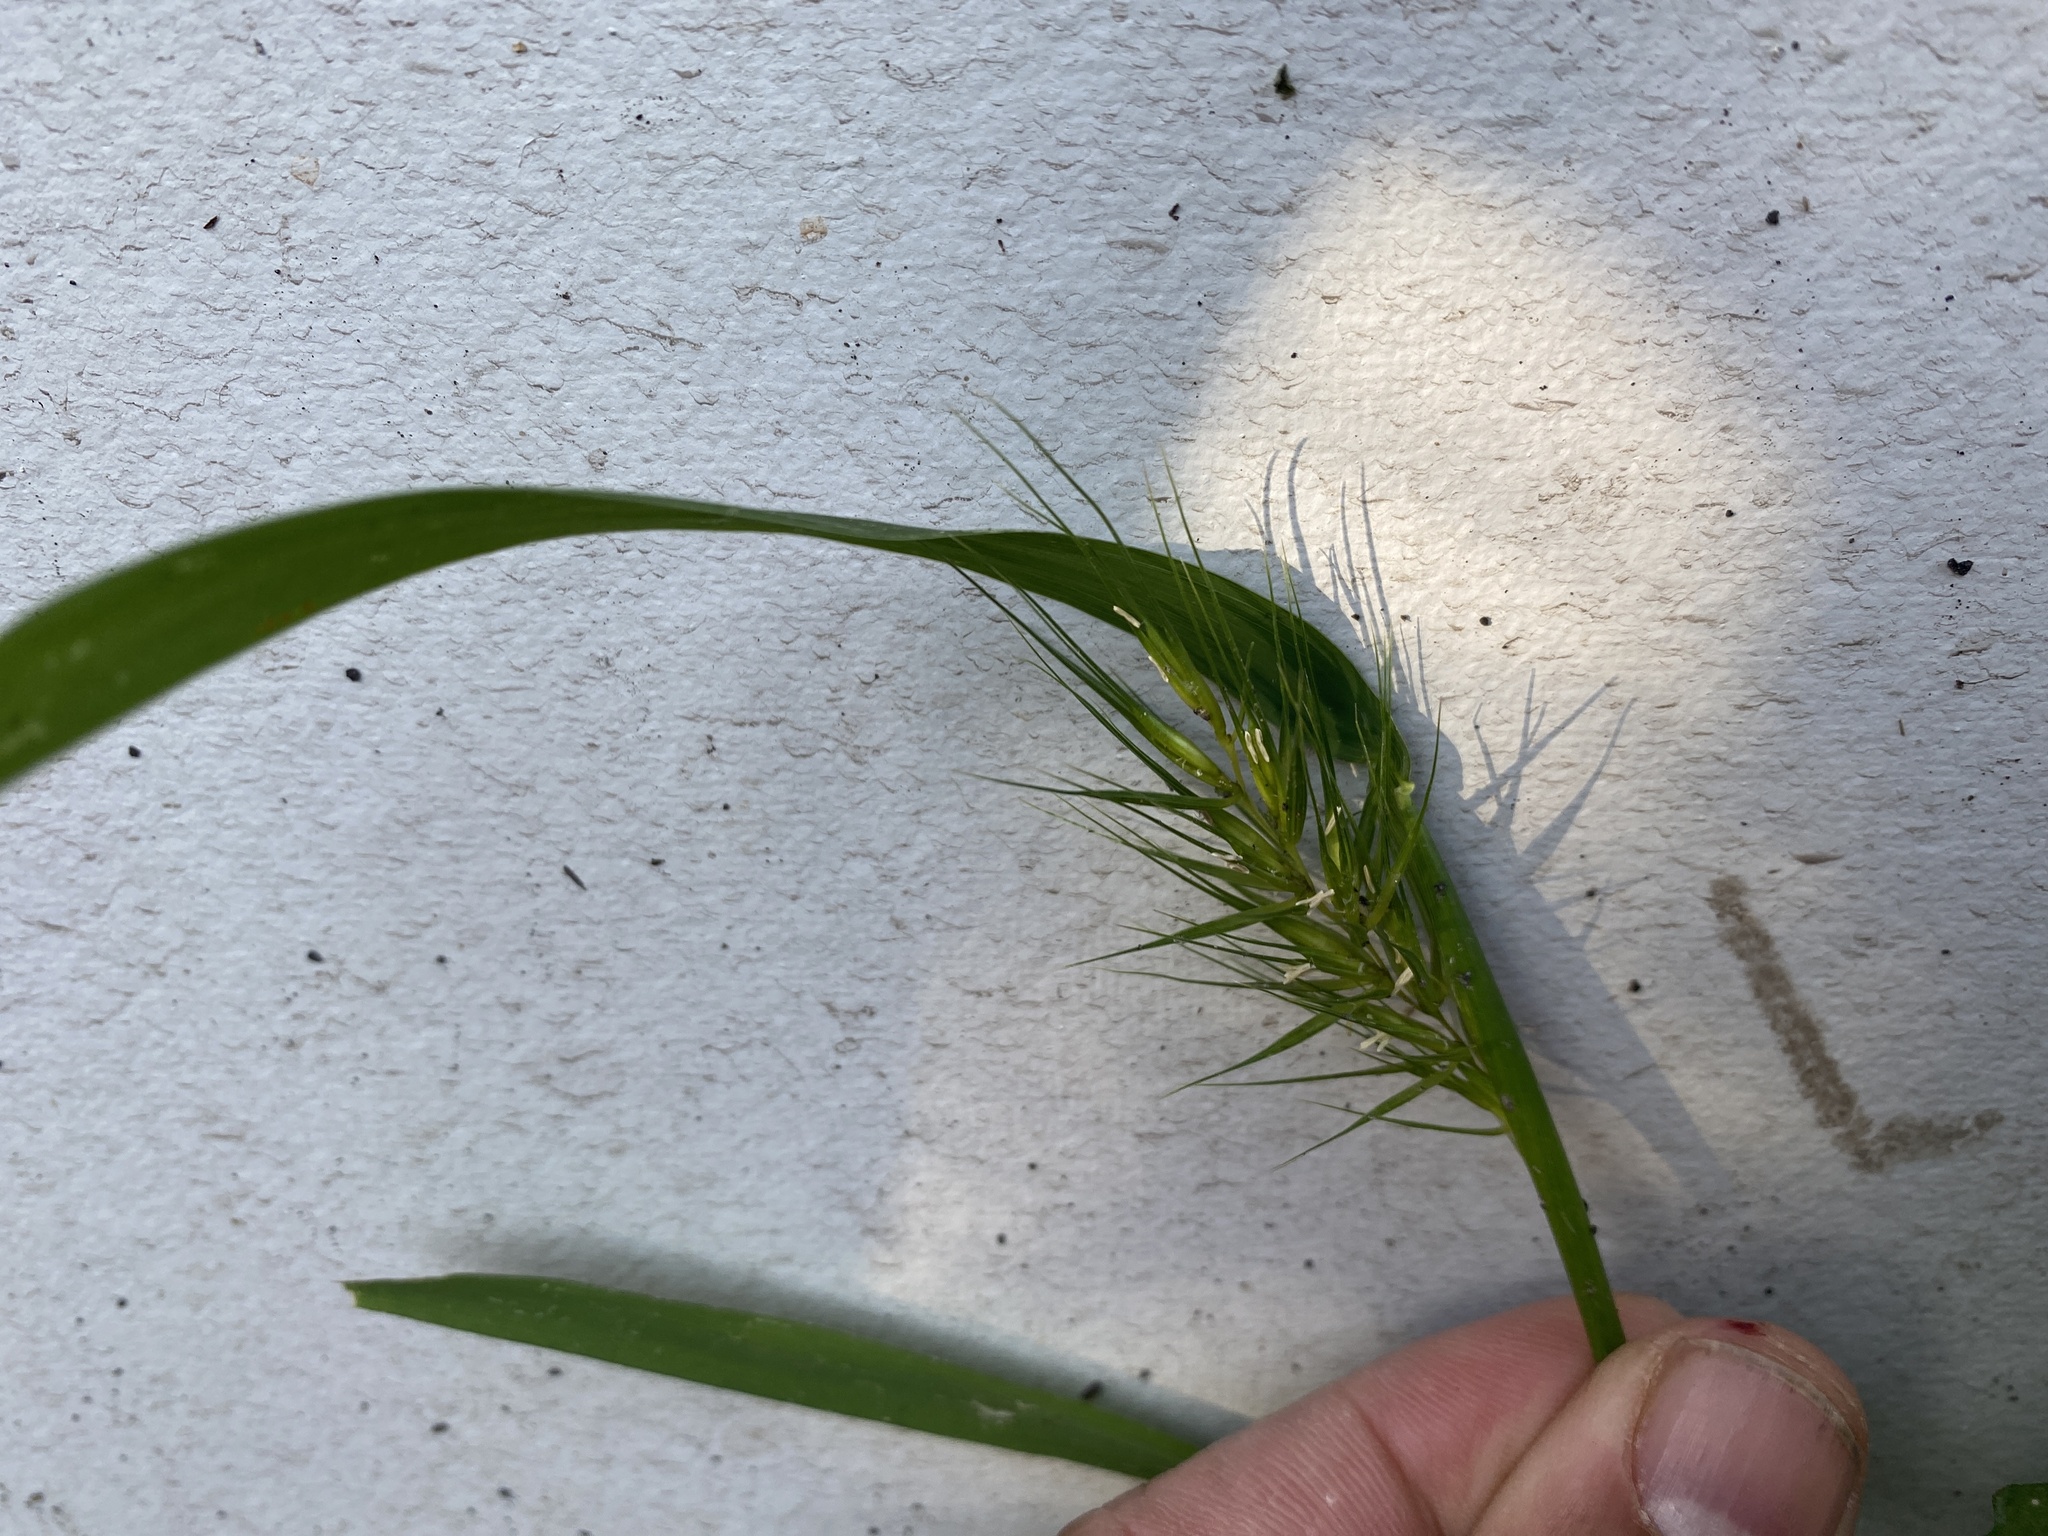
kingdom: Plantae
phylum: Tracheophyta
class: Liliopsida
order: Poales
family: Poaceae
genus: Elymus
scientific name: Elymus virginicus
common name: Common eastern wildrye
